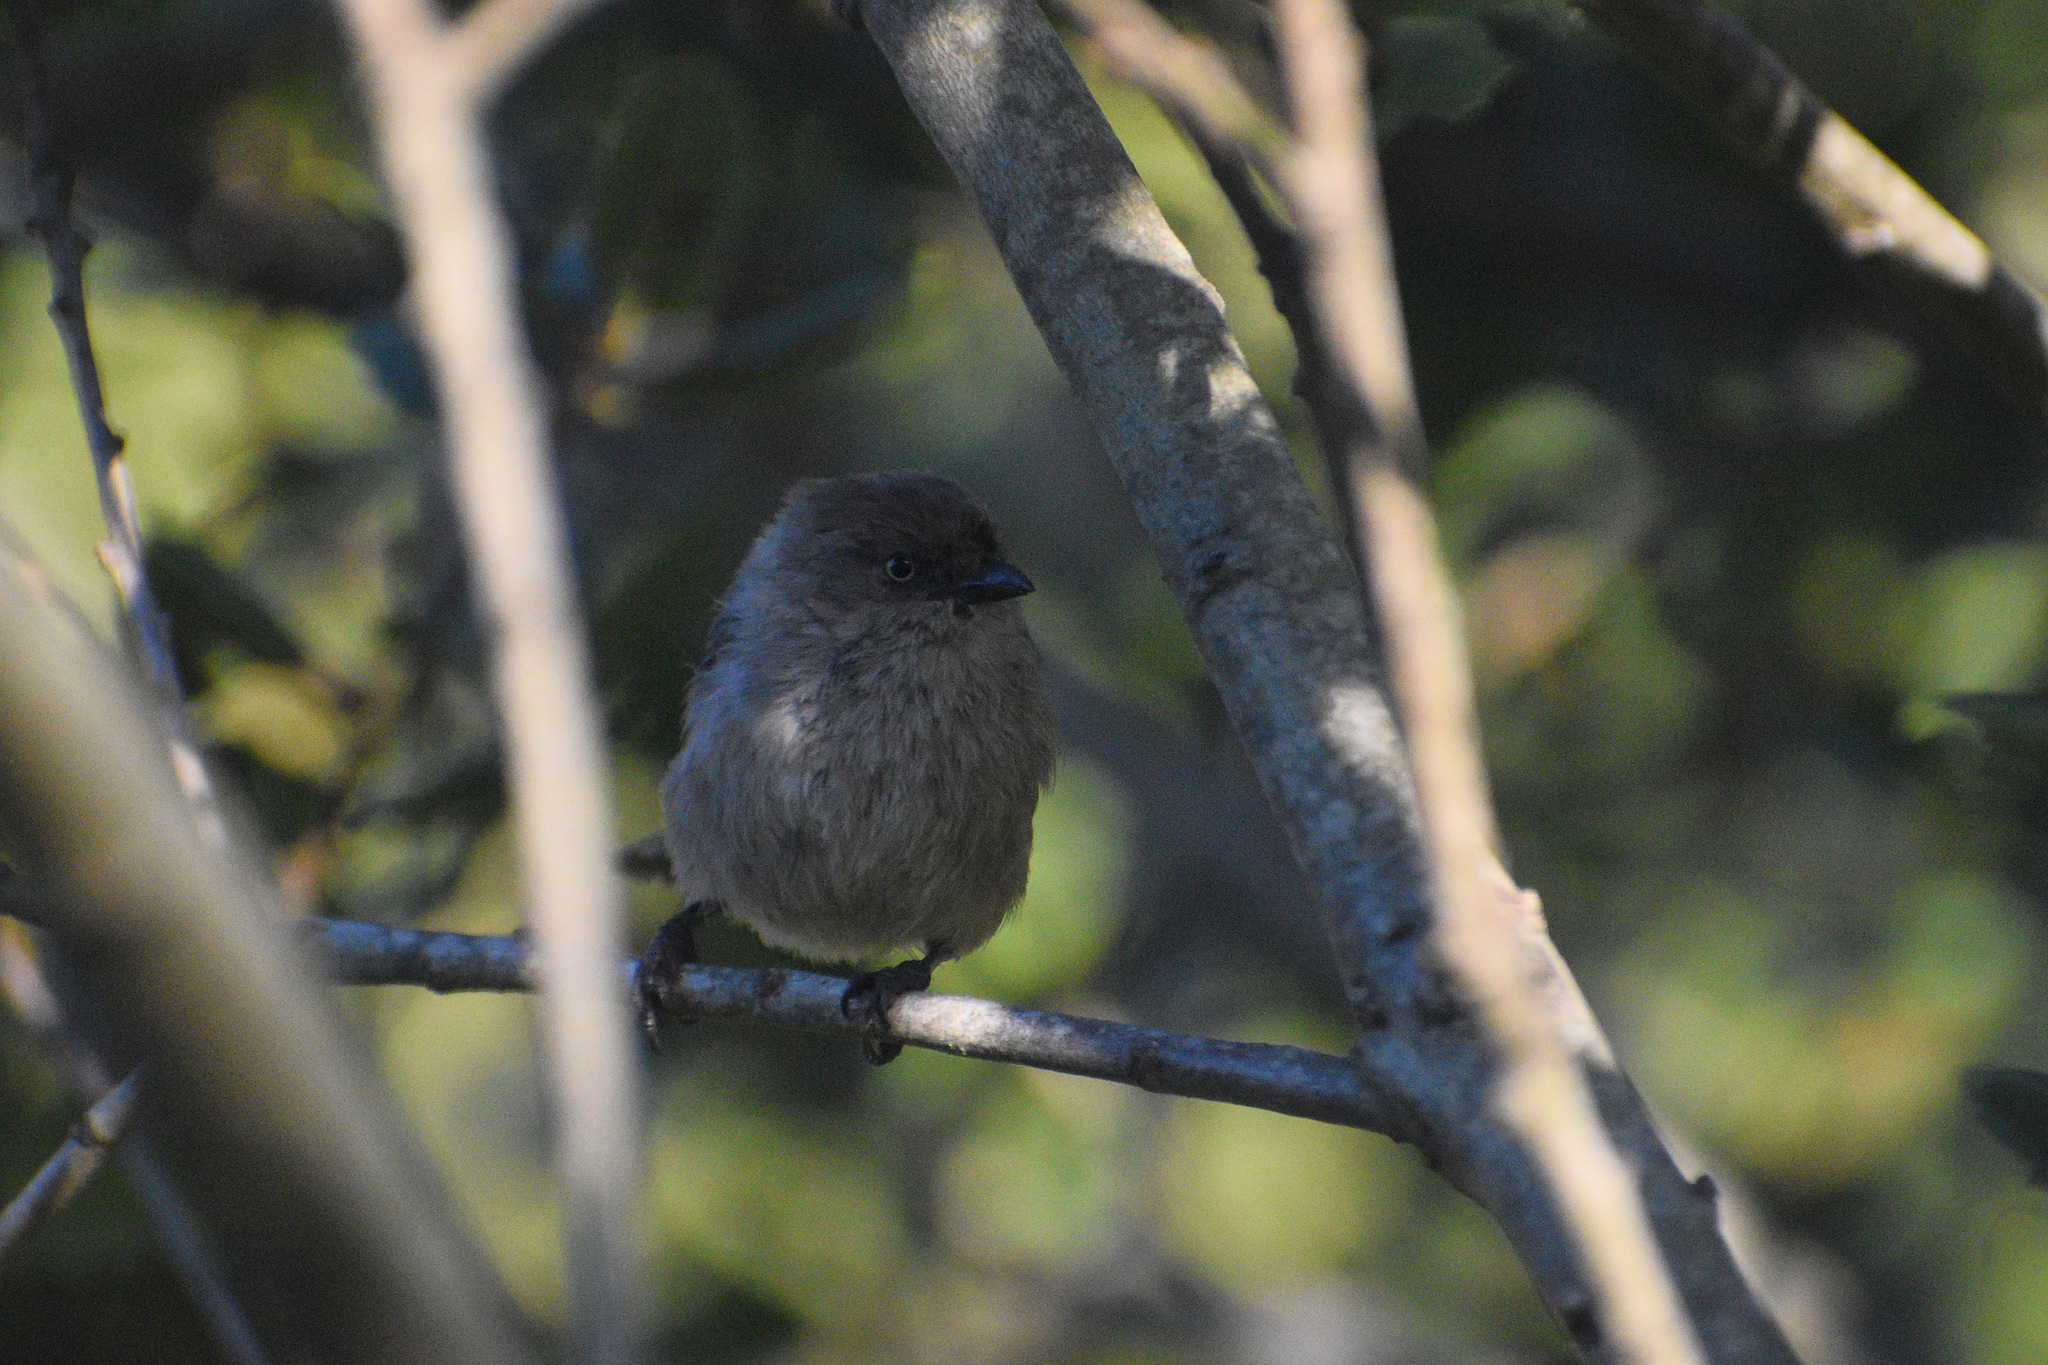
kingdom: Animalia
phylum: Chordata
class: Aves
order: Passeriformes
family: Aegithalidae
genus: Psaltriparus
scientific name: Psaltriparus minimus
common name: American bushtit
